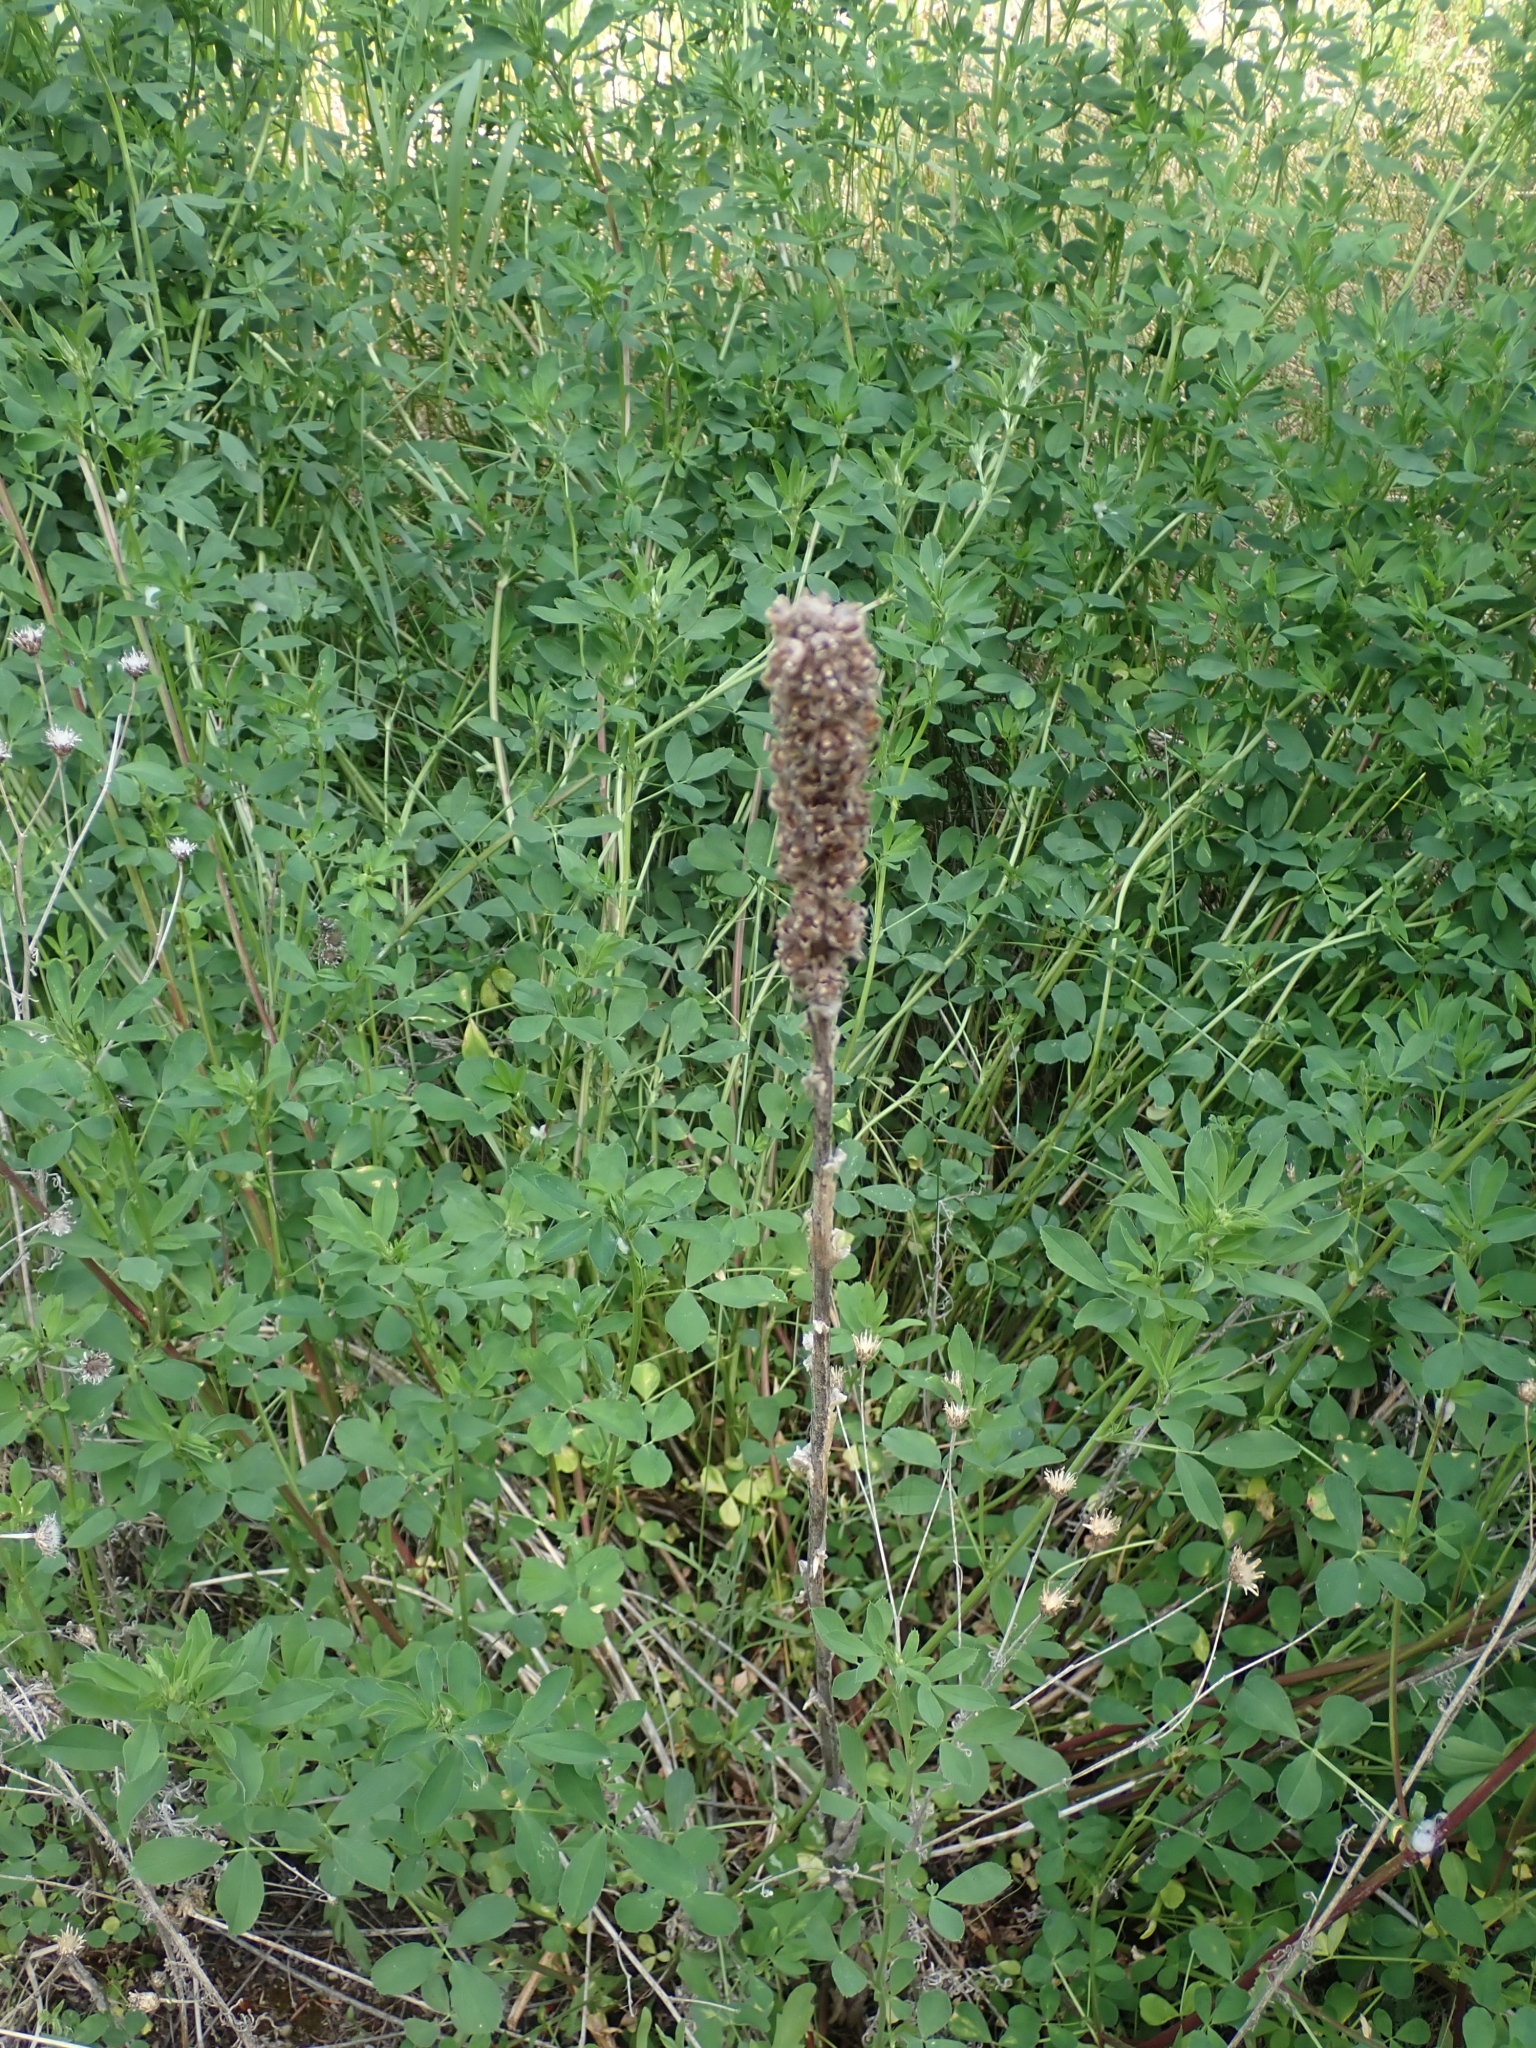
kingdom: Plantae
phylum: Tracheophyta
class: Magnoliopsida
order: Lamiales
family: Scrophulariaceae
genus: Verbascum
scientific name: Verbascum thapsus
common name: Common mullein
